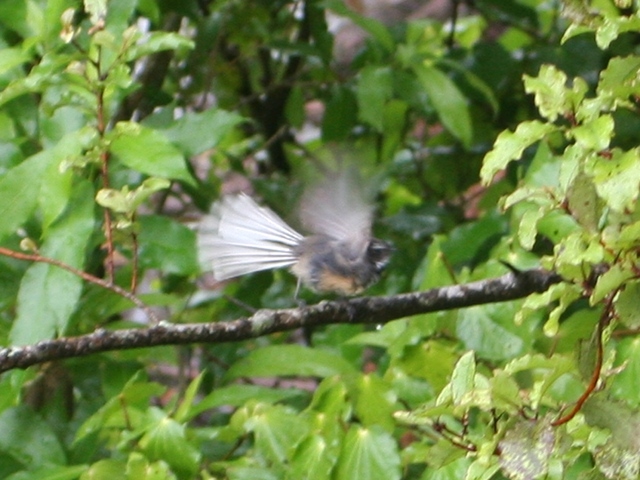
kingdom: Animalia
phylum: Chordata
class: Aves
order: Passeriformes
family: Rhipiduridae
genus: Rhipidura
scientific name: Rhipidura fuliginosa
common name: New zealand fantail
